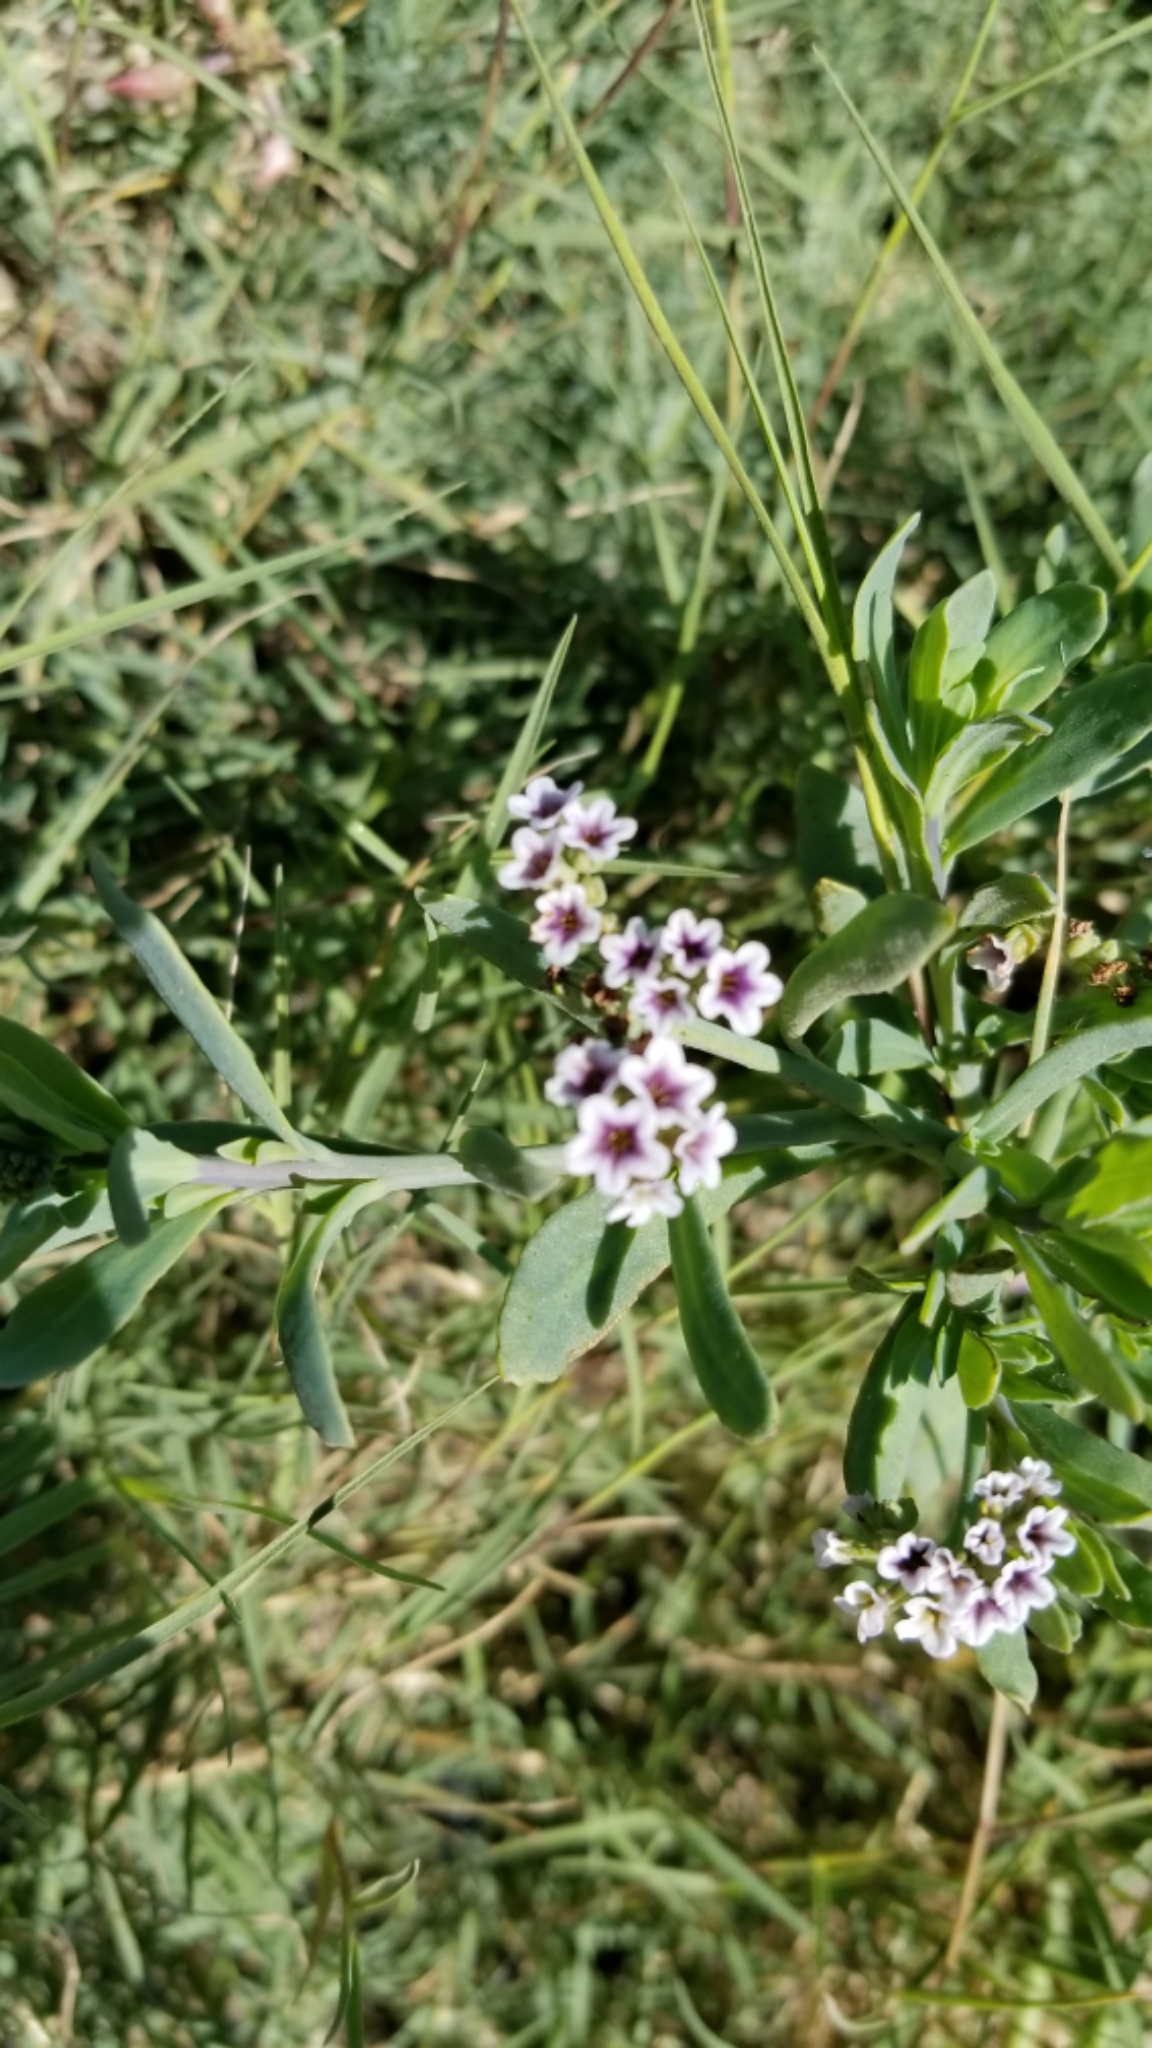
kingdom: Plantae
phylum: Tracheophyta
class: Magnoliopsida
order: Boraginales
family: Heliotropiaceae
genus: Heliotropium
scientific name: Heliotropium curassavicum
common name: Seaside heliotrope
